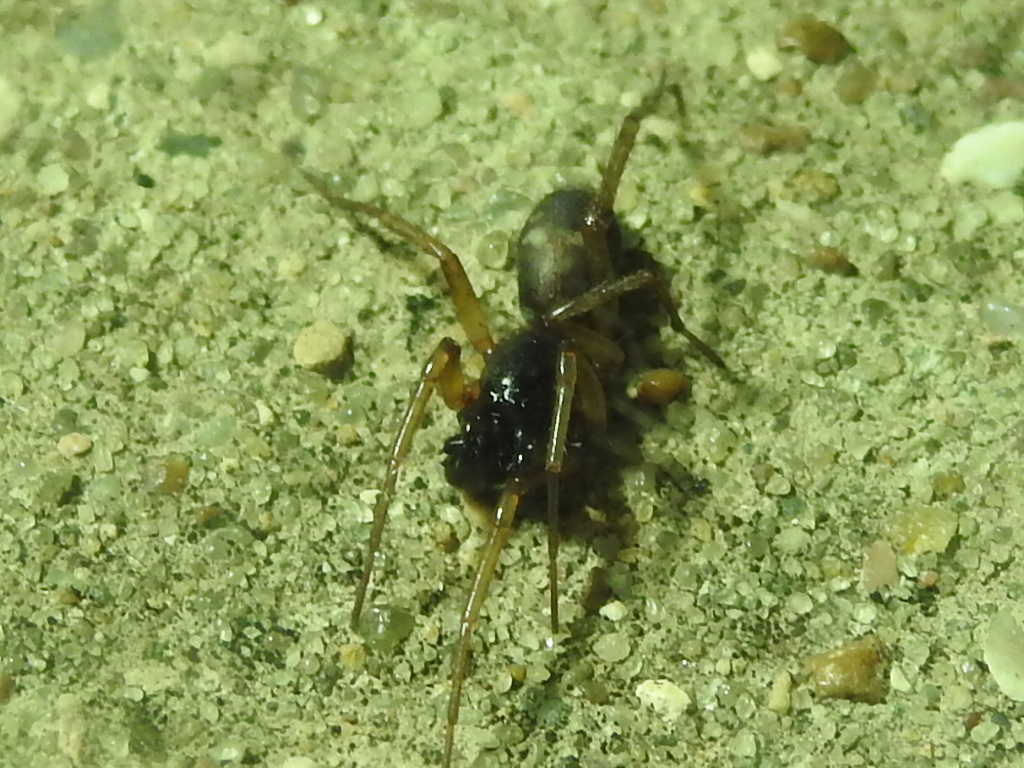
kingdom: Animalia
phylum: Arthropoda
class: Arachnida
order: Araneae
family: Corinnidae
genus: Falconina
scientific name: Falconina gracilis
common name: Antmimic spider
